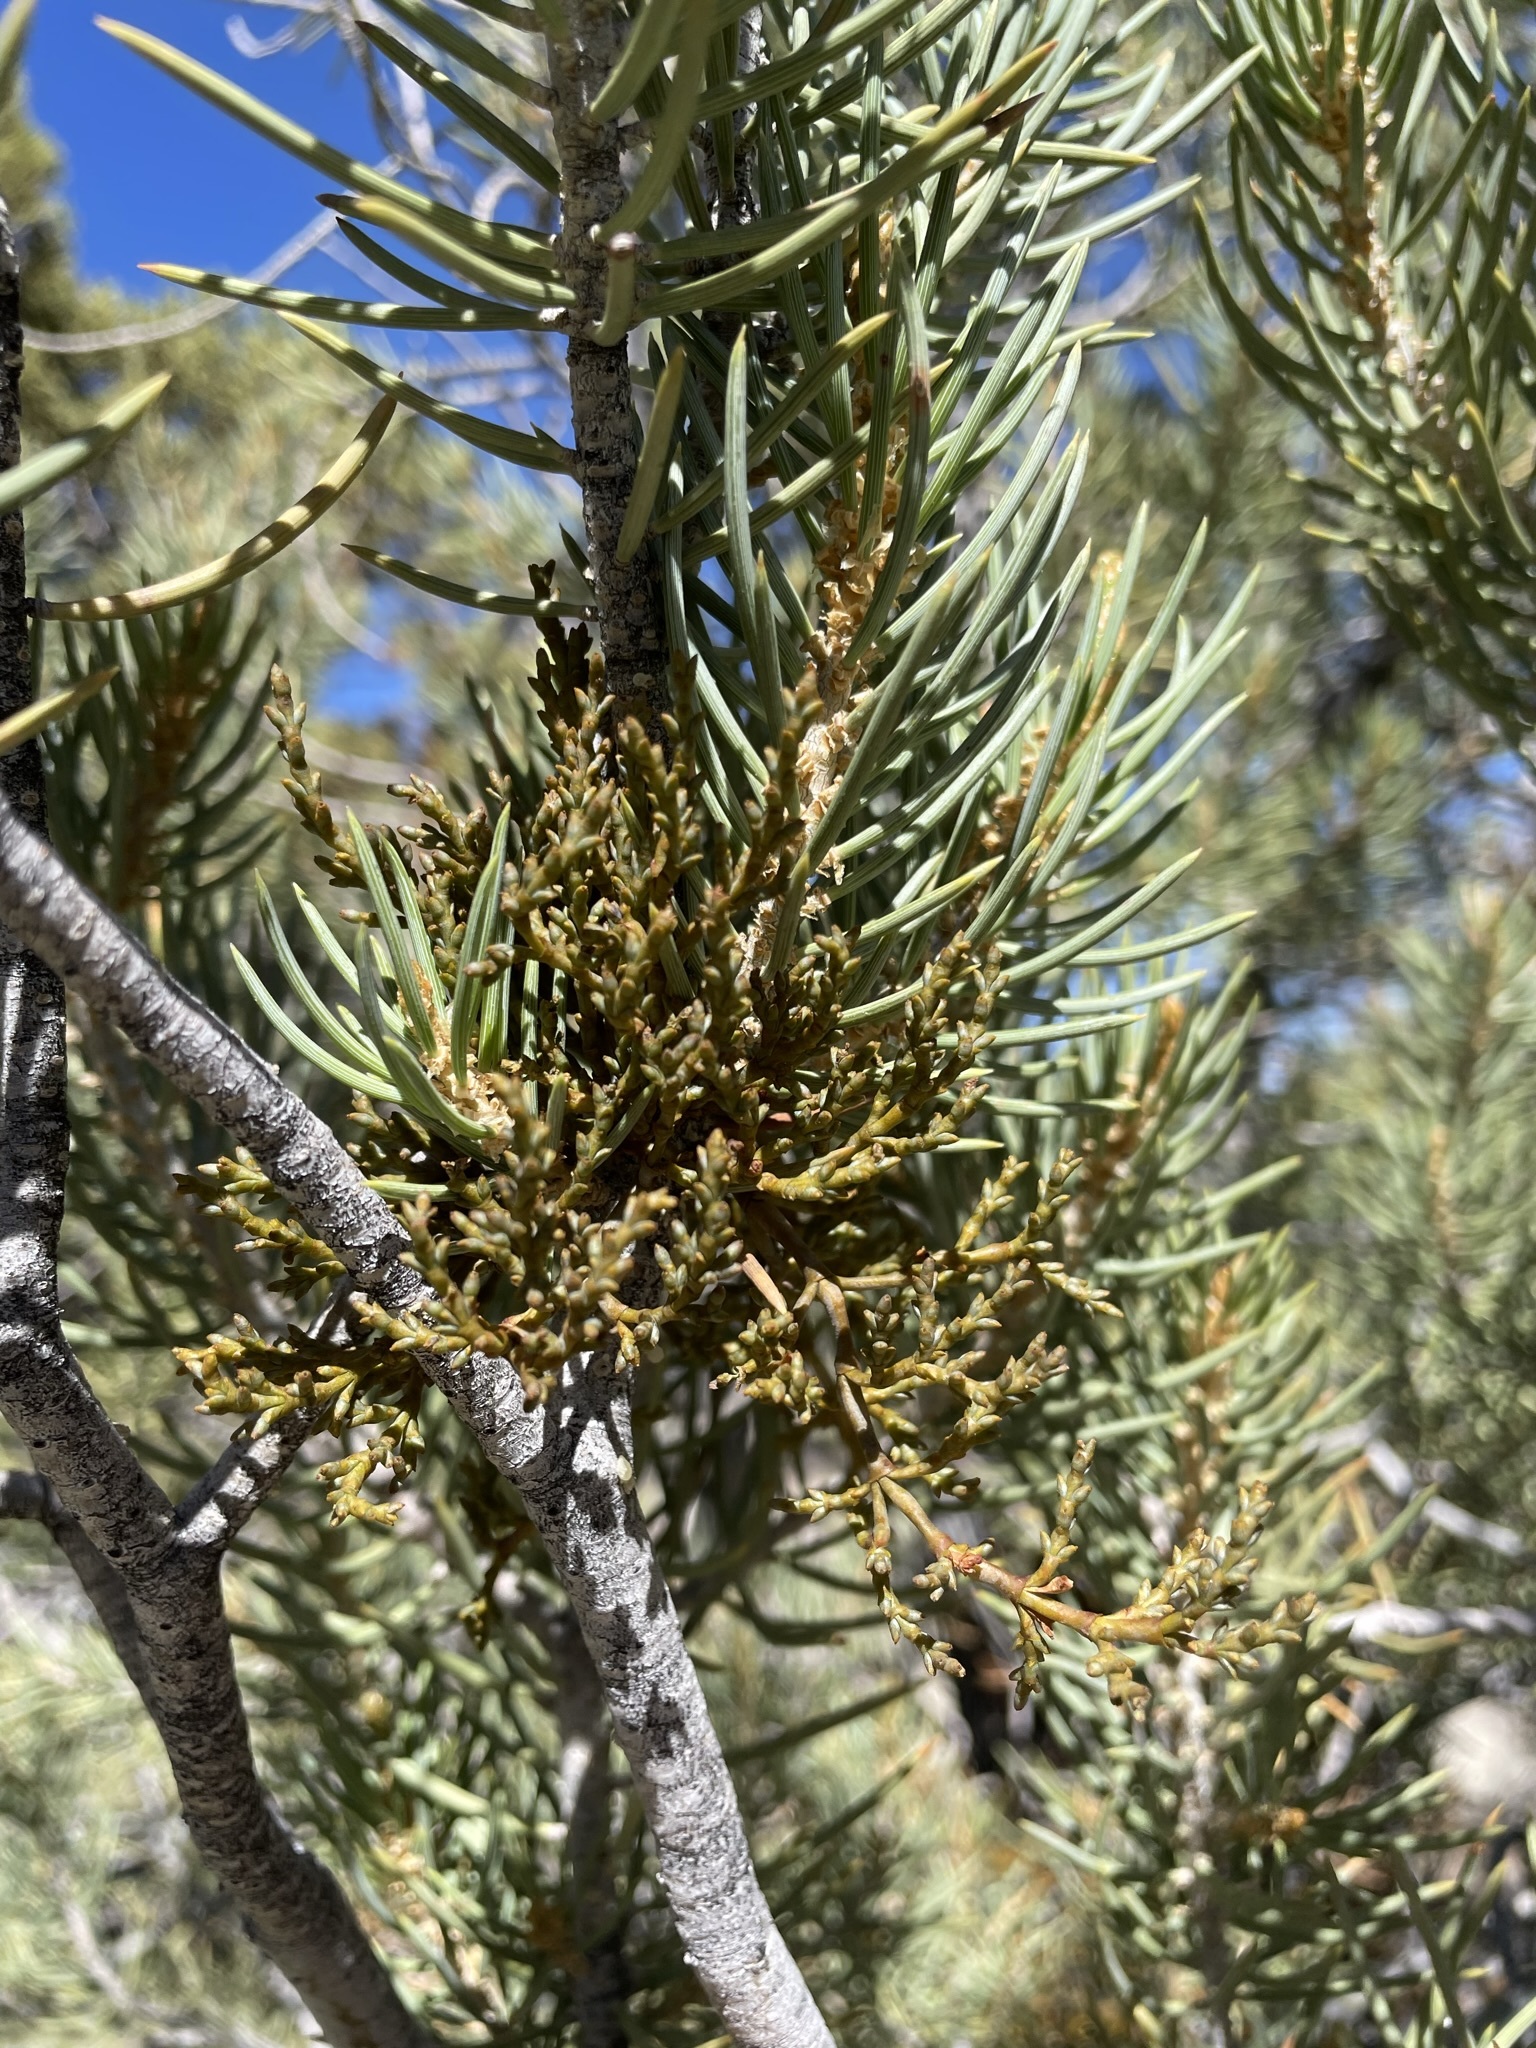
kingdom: Plantae
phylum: Tracheophyta
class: Magnoliopsida
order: Santalales
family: Viscaceae
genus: Arceuthobium
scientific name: Arceuthobium divaricatum
